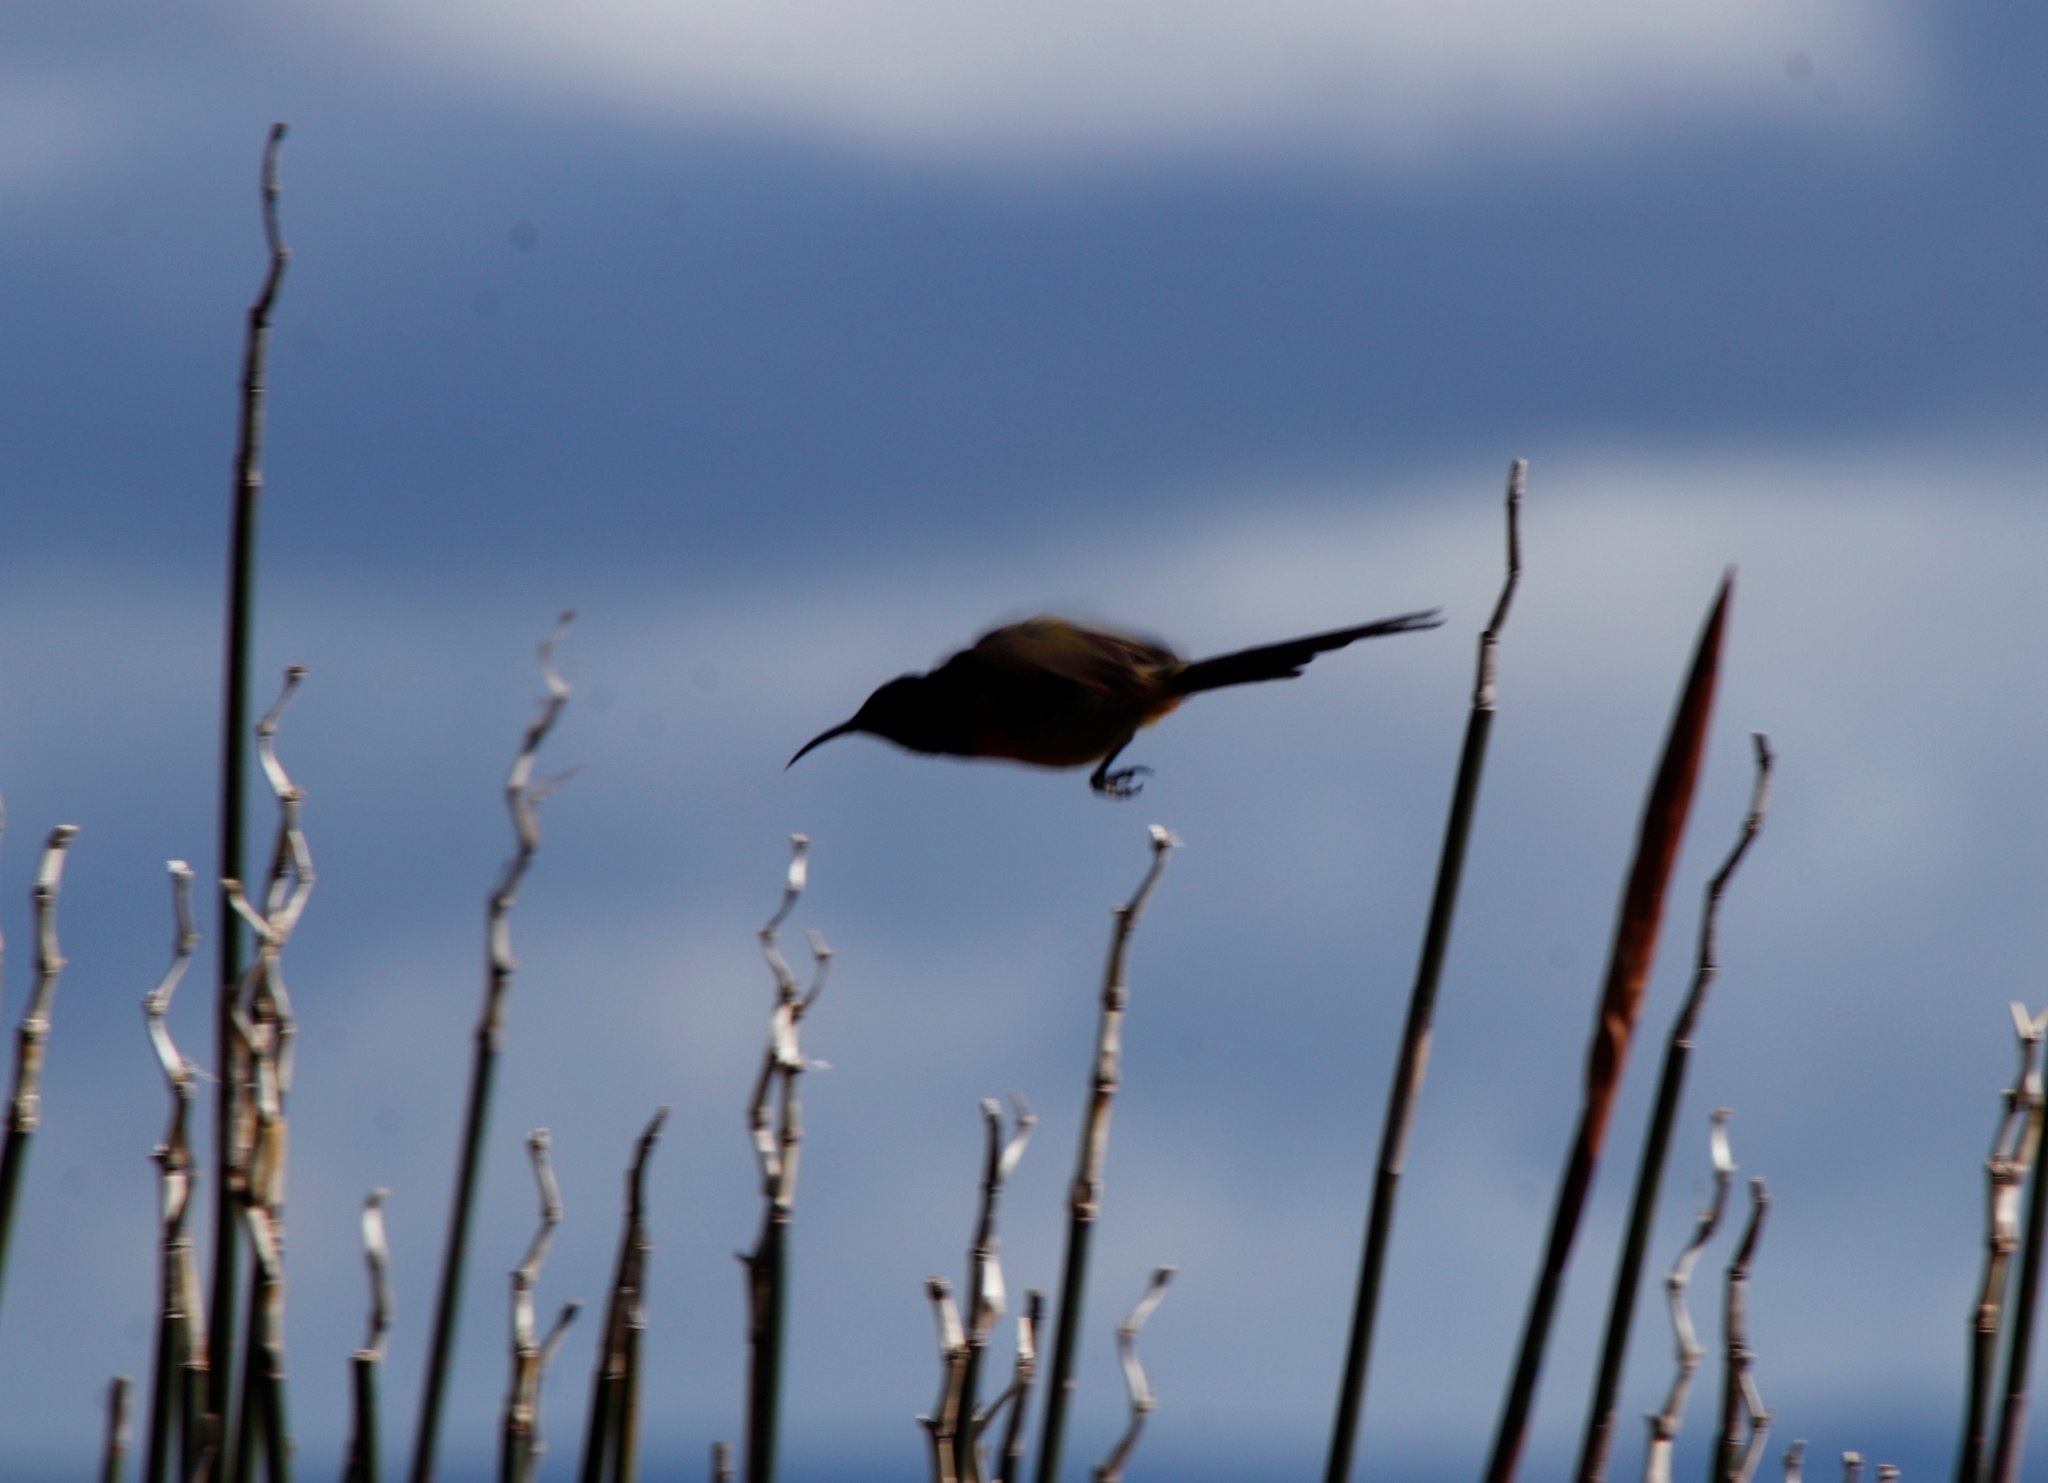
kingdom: Animalia
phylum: Chordata
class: Aves
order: Passeriformes
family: Nectariniidae
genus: Anthobaphes
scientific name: Anthobaphes violacea
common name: Orange-breasted sunbird
